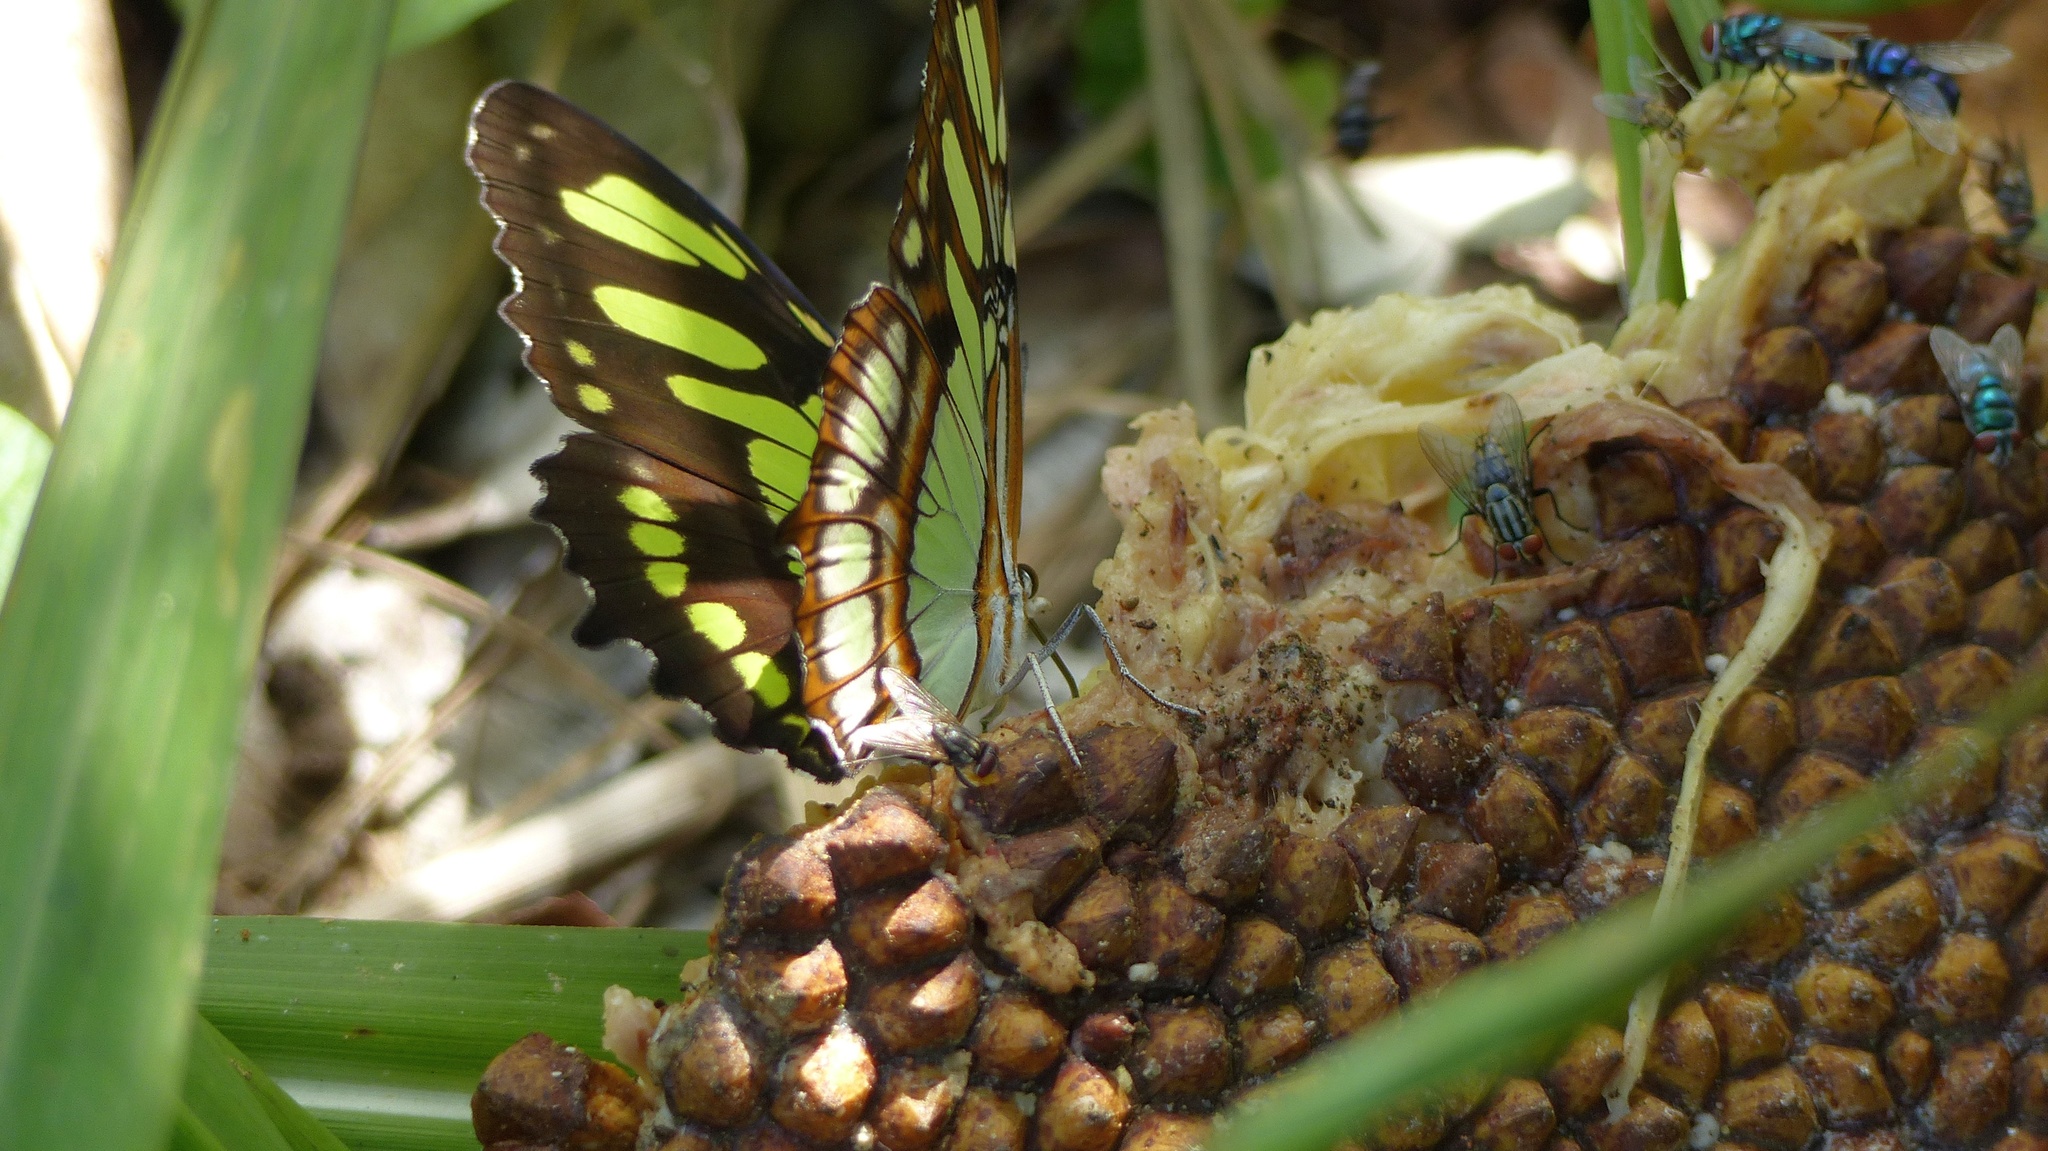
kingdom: Animalia
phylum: Arthropoda
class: Insecta
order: Lepidoptera
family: Nymphalidae
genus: Siproeta
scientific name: Siproeta stelenes
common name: Malachite
